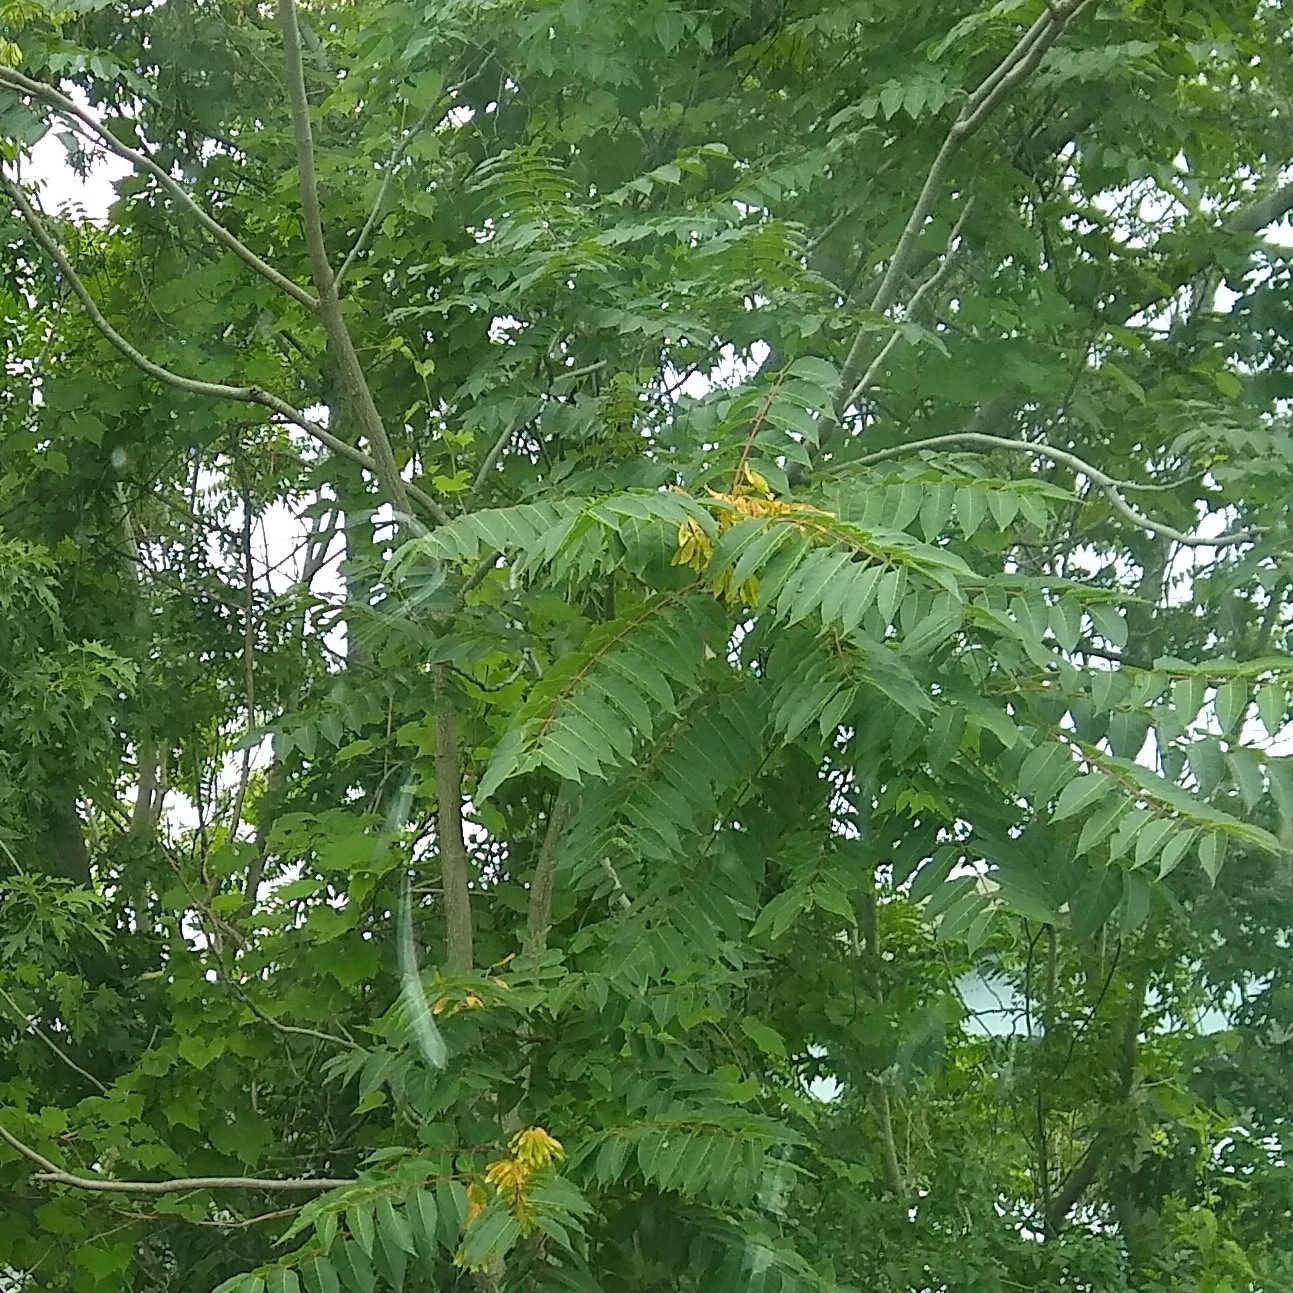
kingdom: Plantae
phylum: Tracheophyta
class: Magnoliopsida
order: Sapindales
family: Simaroubaceae
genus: Ailanthus
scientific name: Ailanthus altissima
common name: Tree-of-heaven
